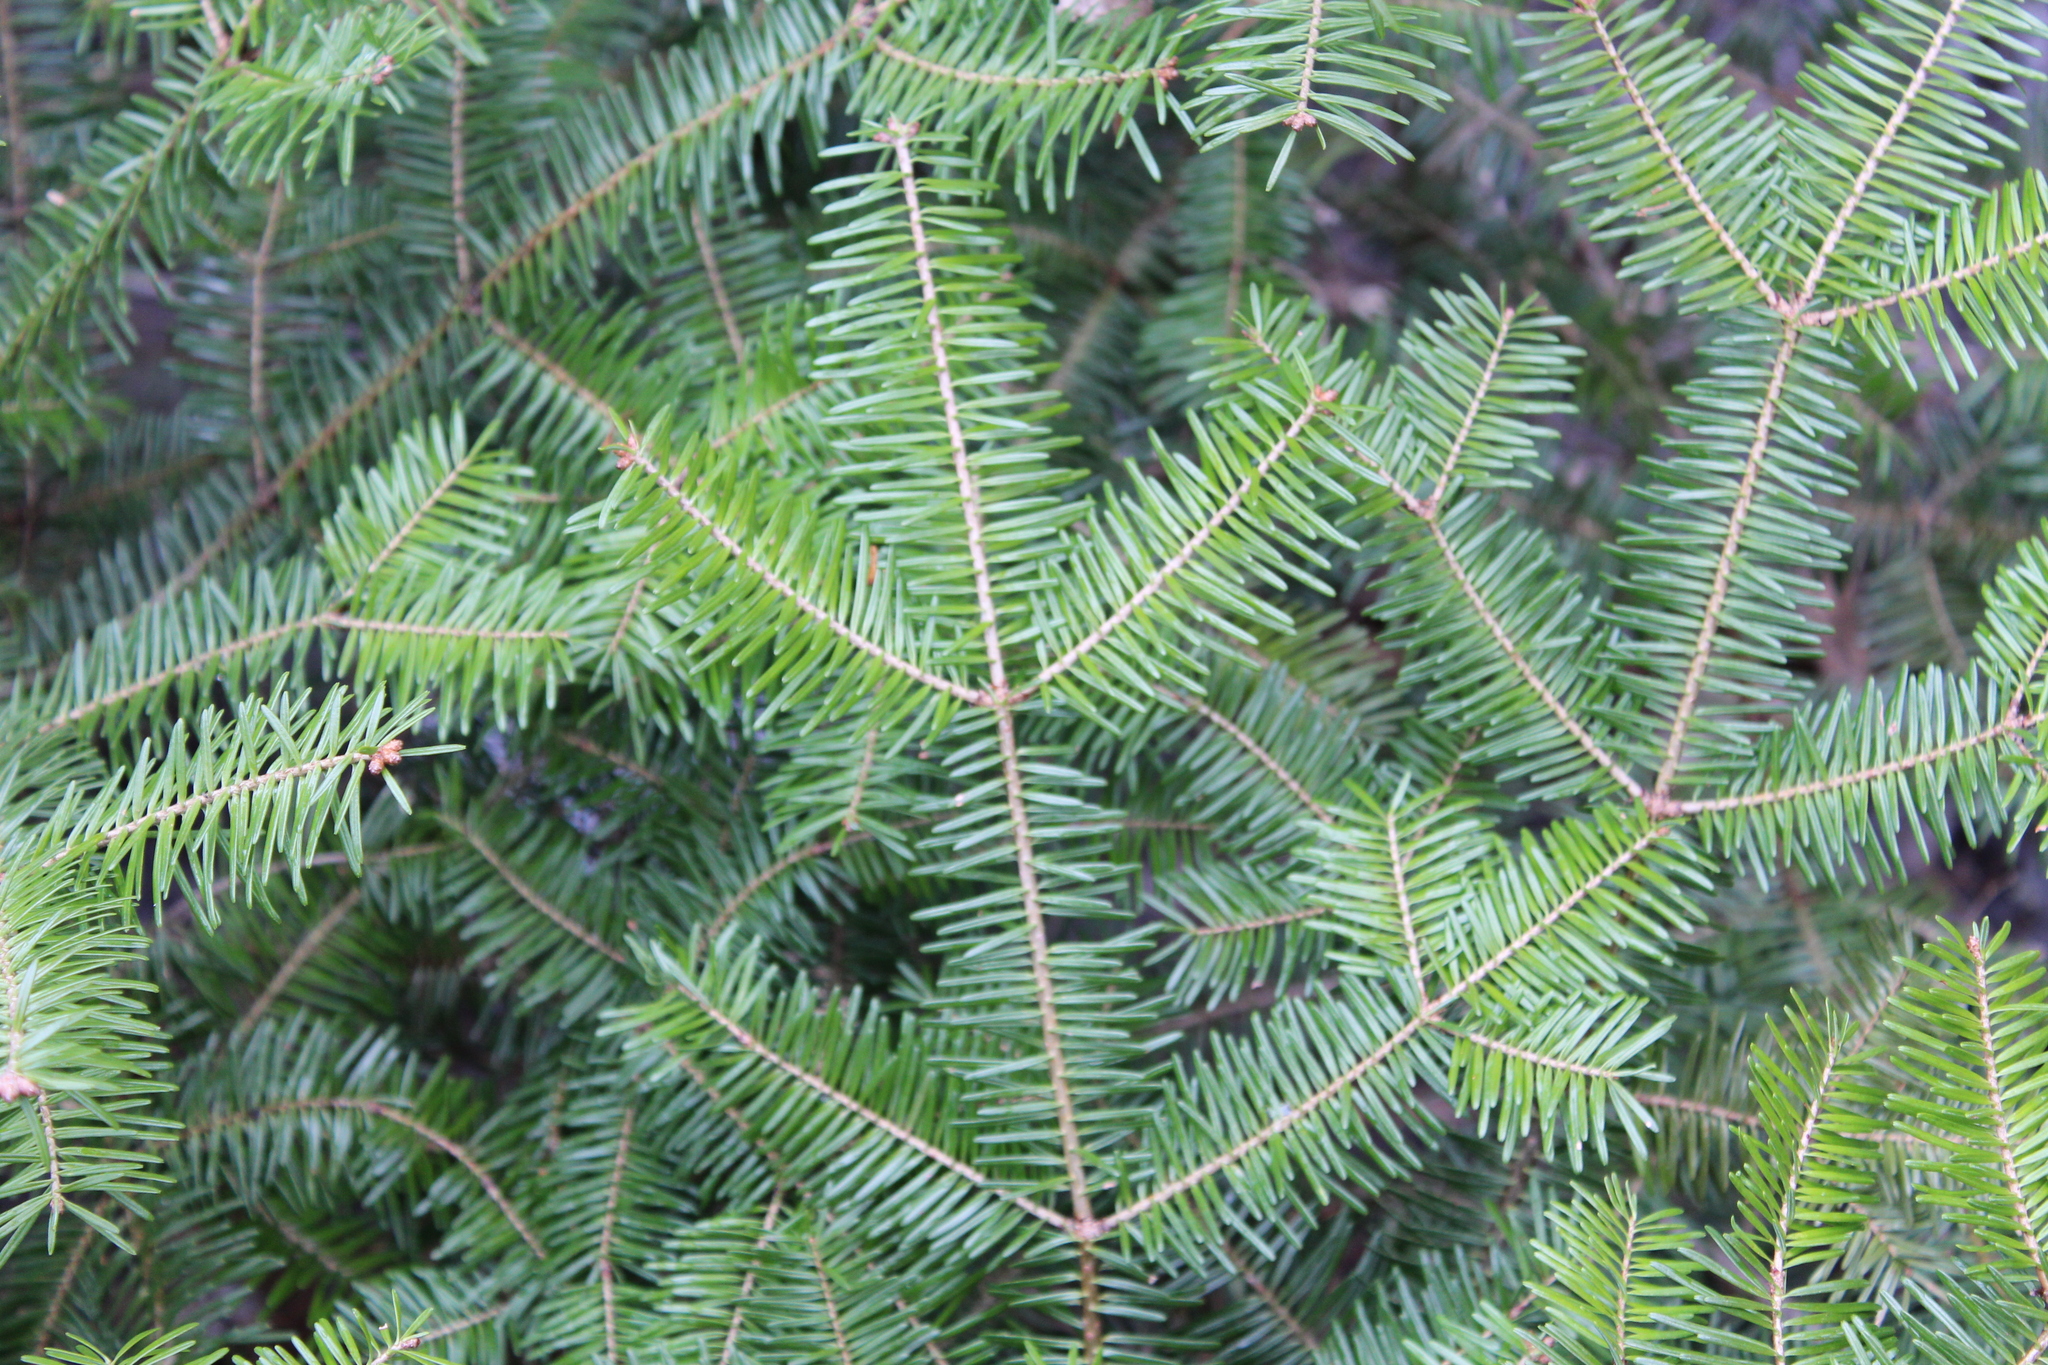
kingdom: Plantae
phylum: Tracheophyta
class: Pinopsida
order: Pinales
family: Pinaceae
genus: Abies
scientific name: Abies balsamea
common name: Balsam fir
